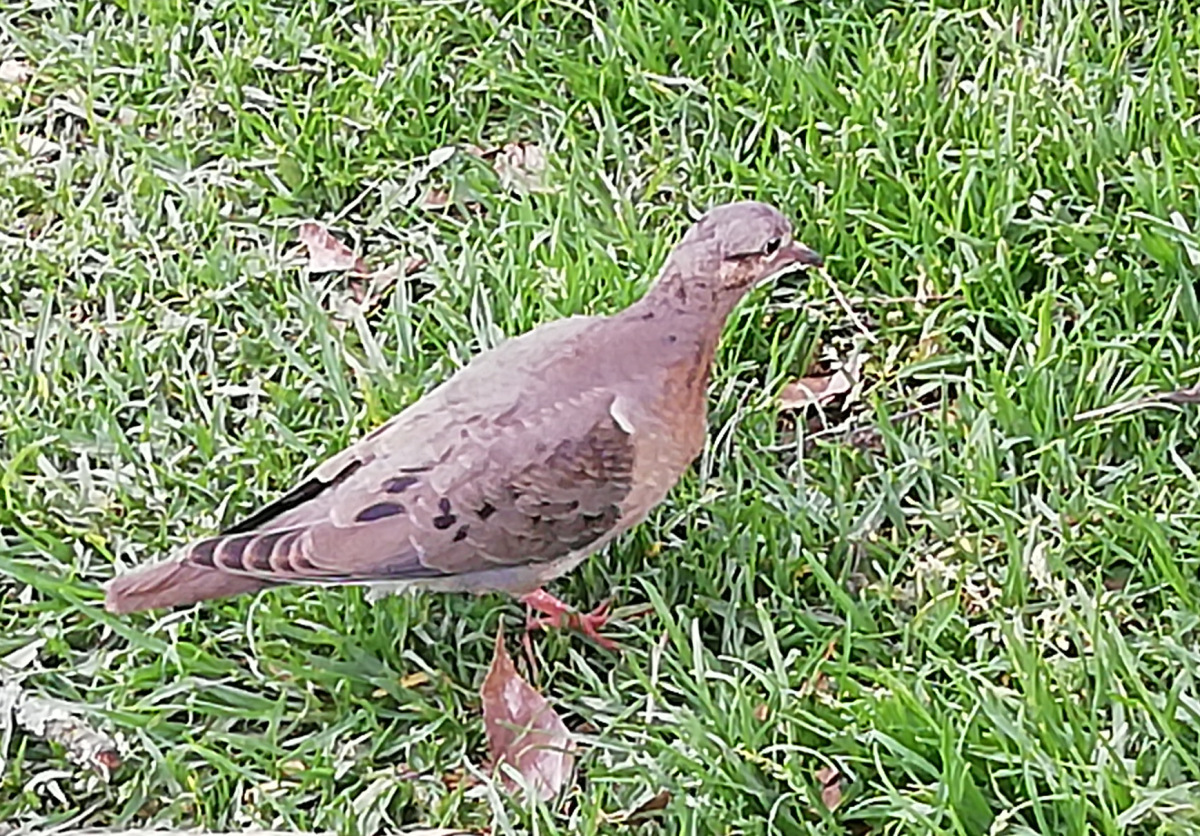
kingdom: Animalia
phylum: Chordata
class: Aves
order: Columbiformes
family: Columbidae
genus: Zenaida
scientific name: Zenaida auriculata
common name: Eared dove
